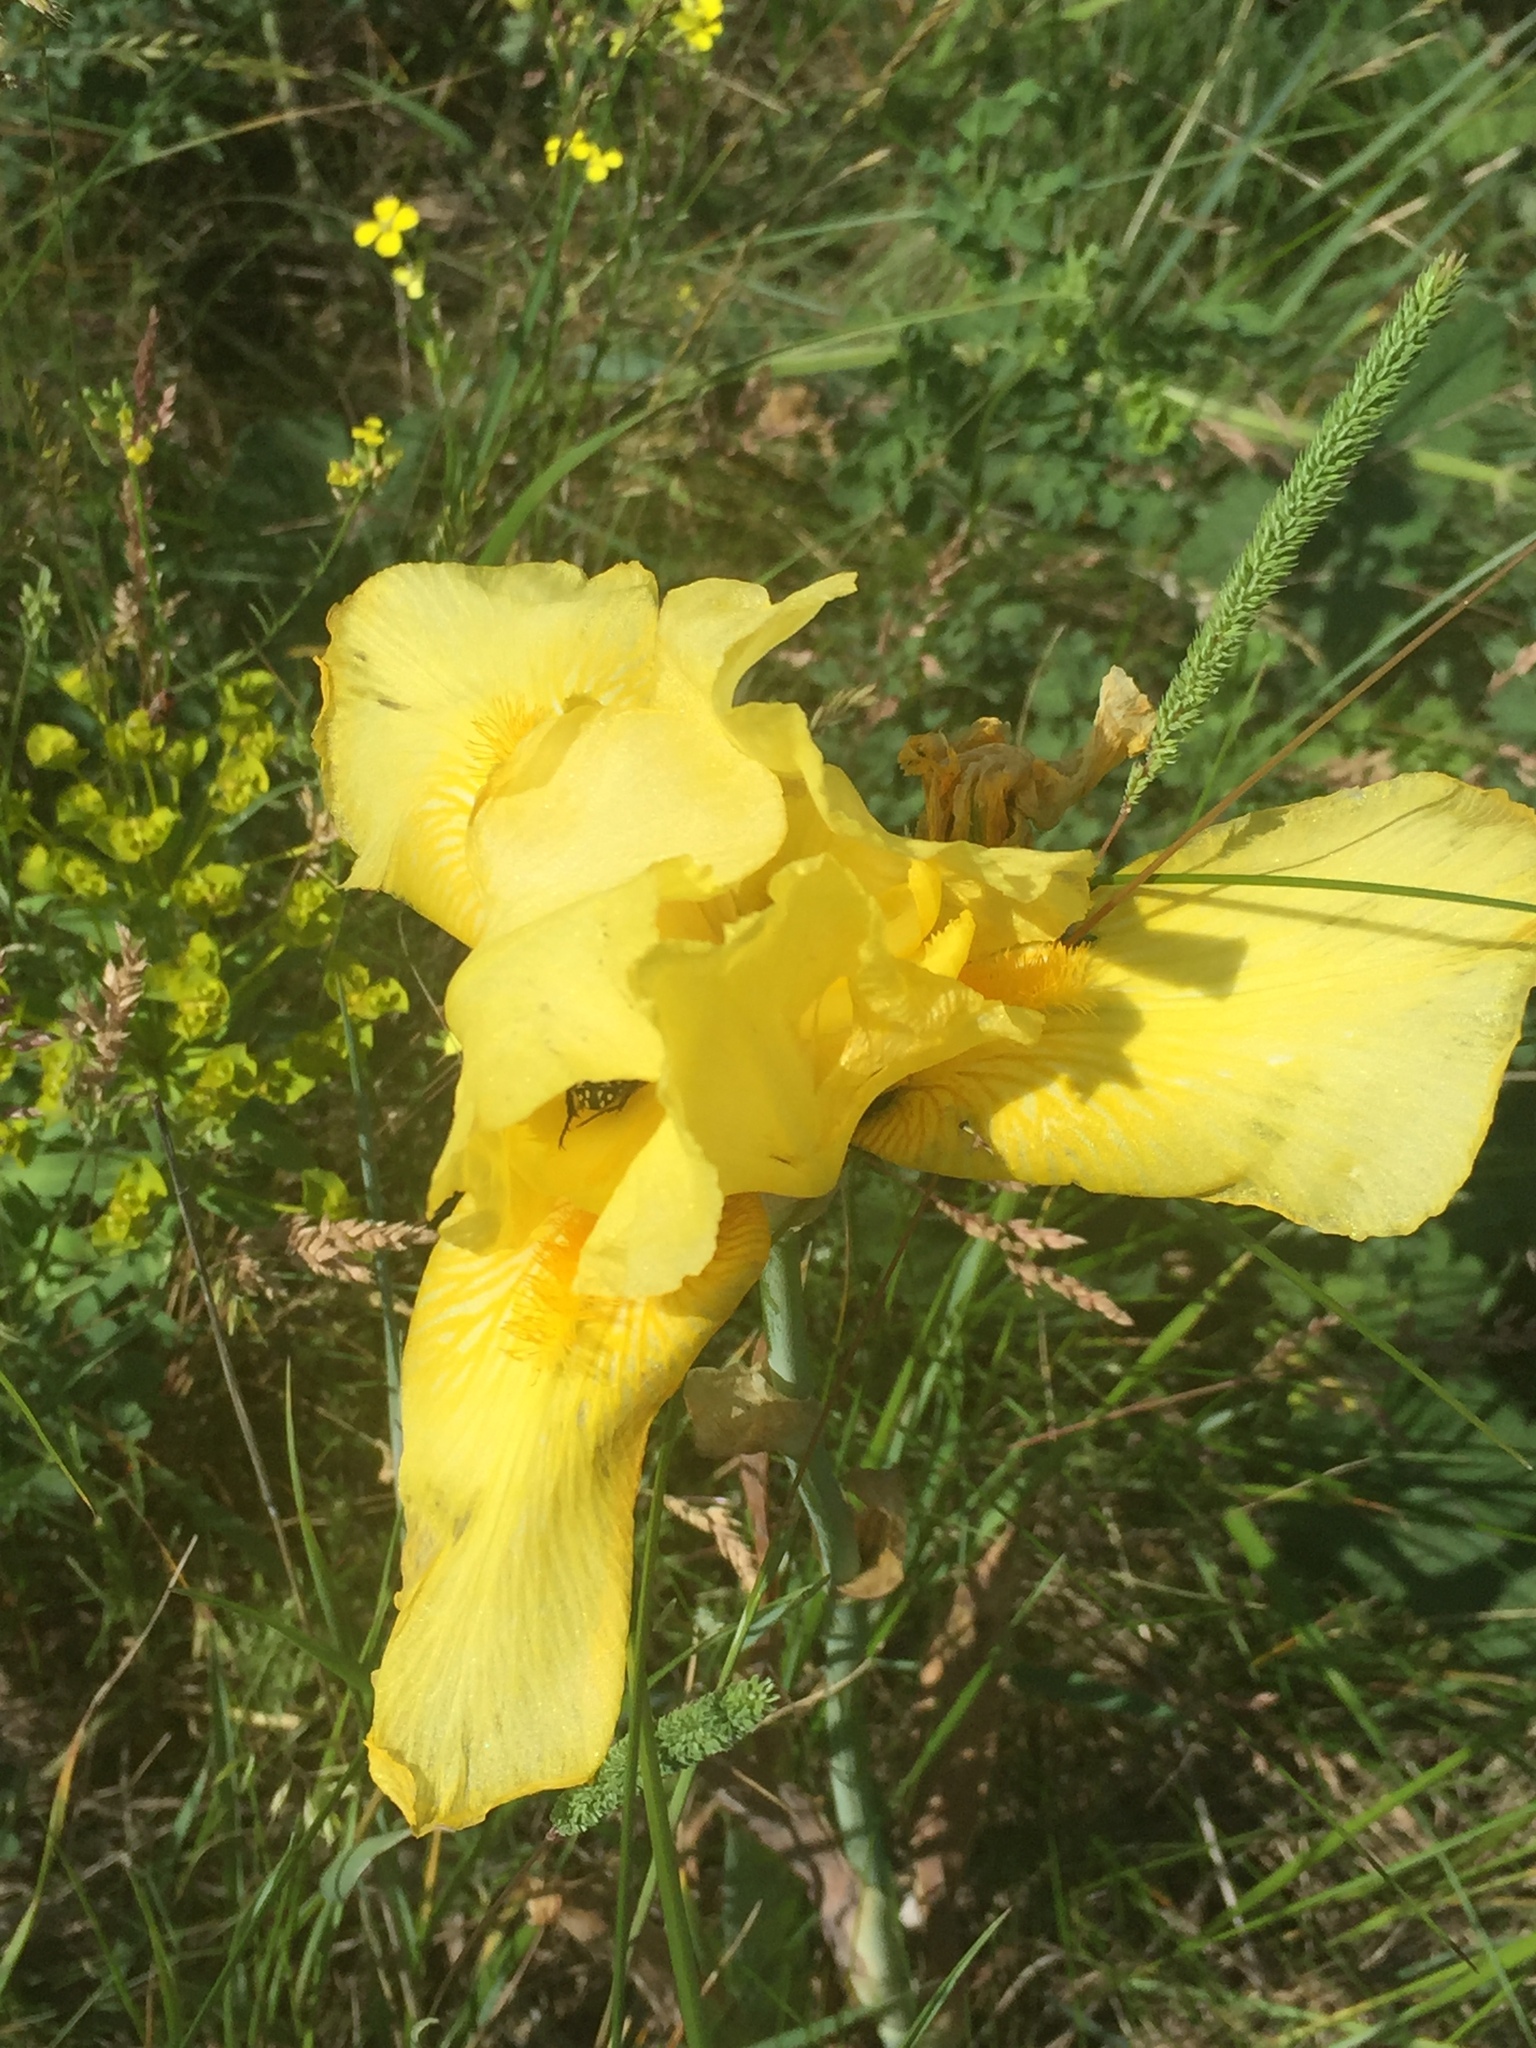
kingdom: Plantae
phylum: Tracheophyta
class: Liliopsida
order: Asparagales
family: Iridaceae
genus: Iris
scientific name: Iris pseudacorus
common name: Yellow flag
